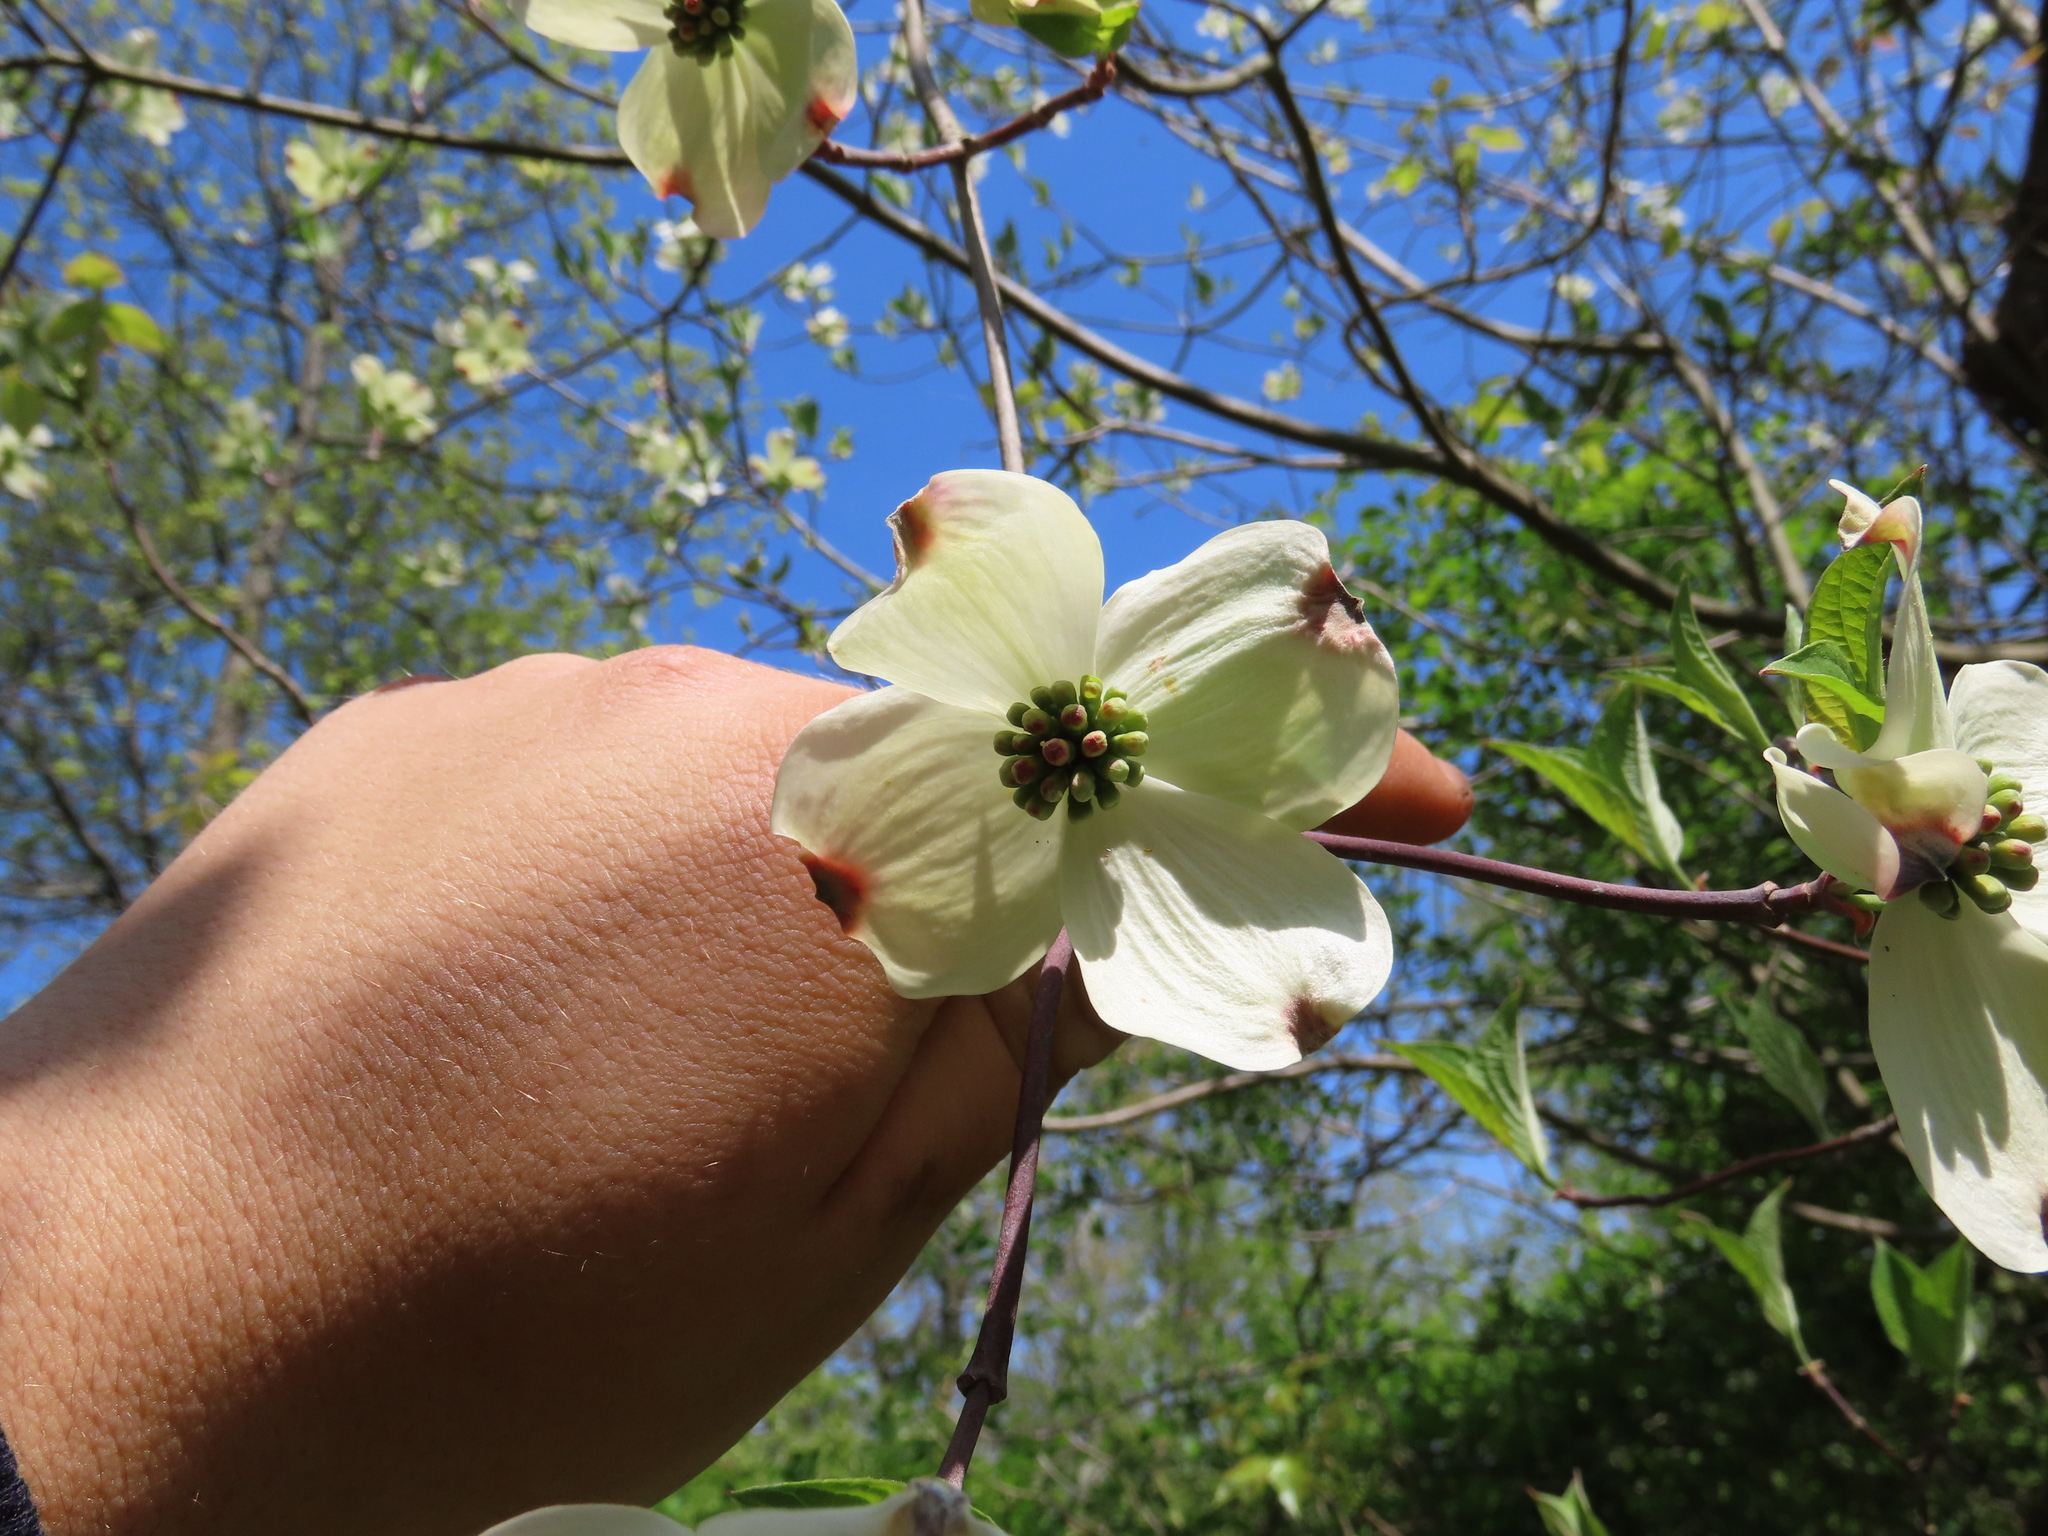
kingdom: Plantae
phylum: Tracheophyta
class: Magnoliopsida
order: Cornales
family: Cornaceae
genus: Cornus
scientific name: Cornus florida
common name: Flowering dogwood
